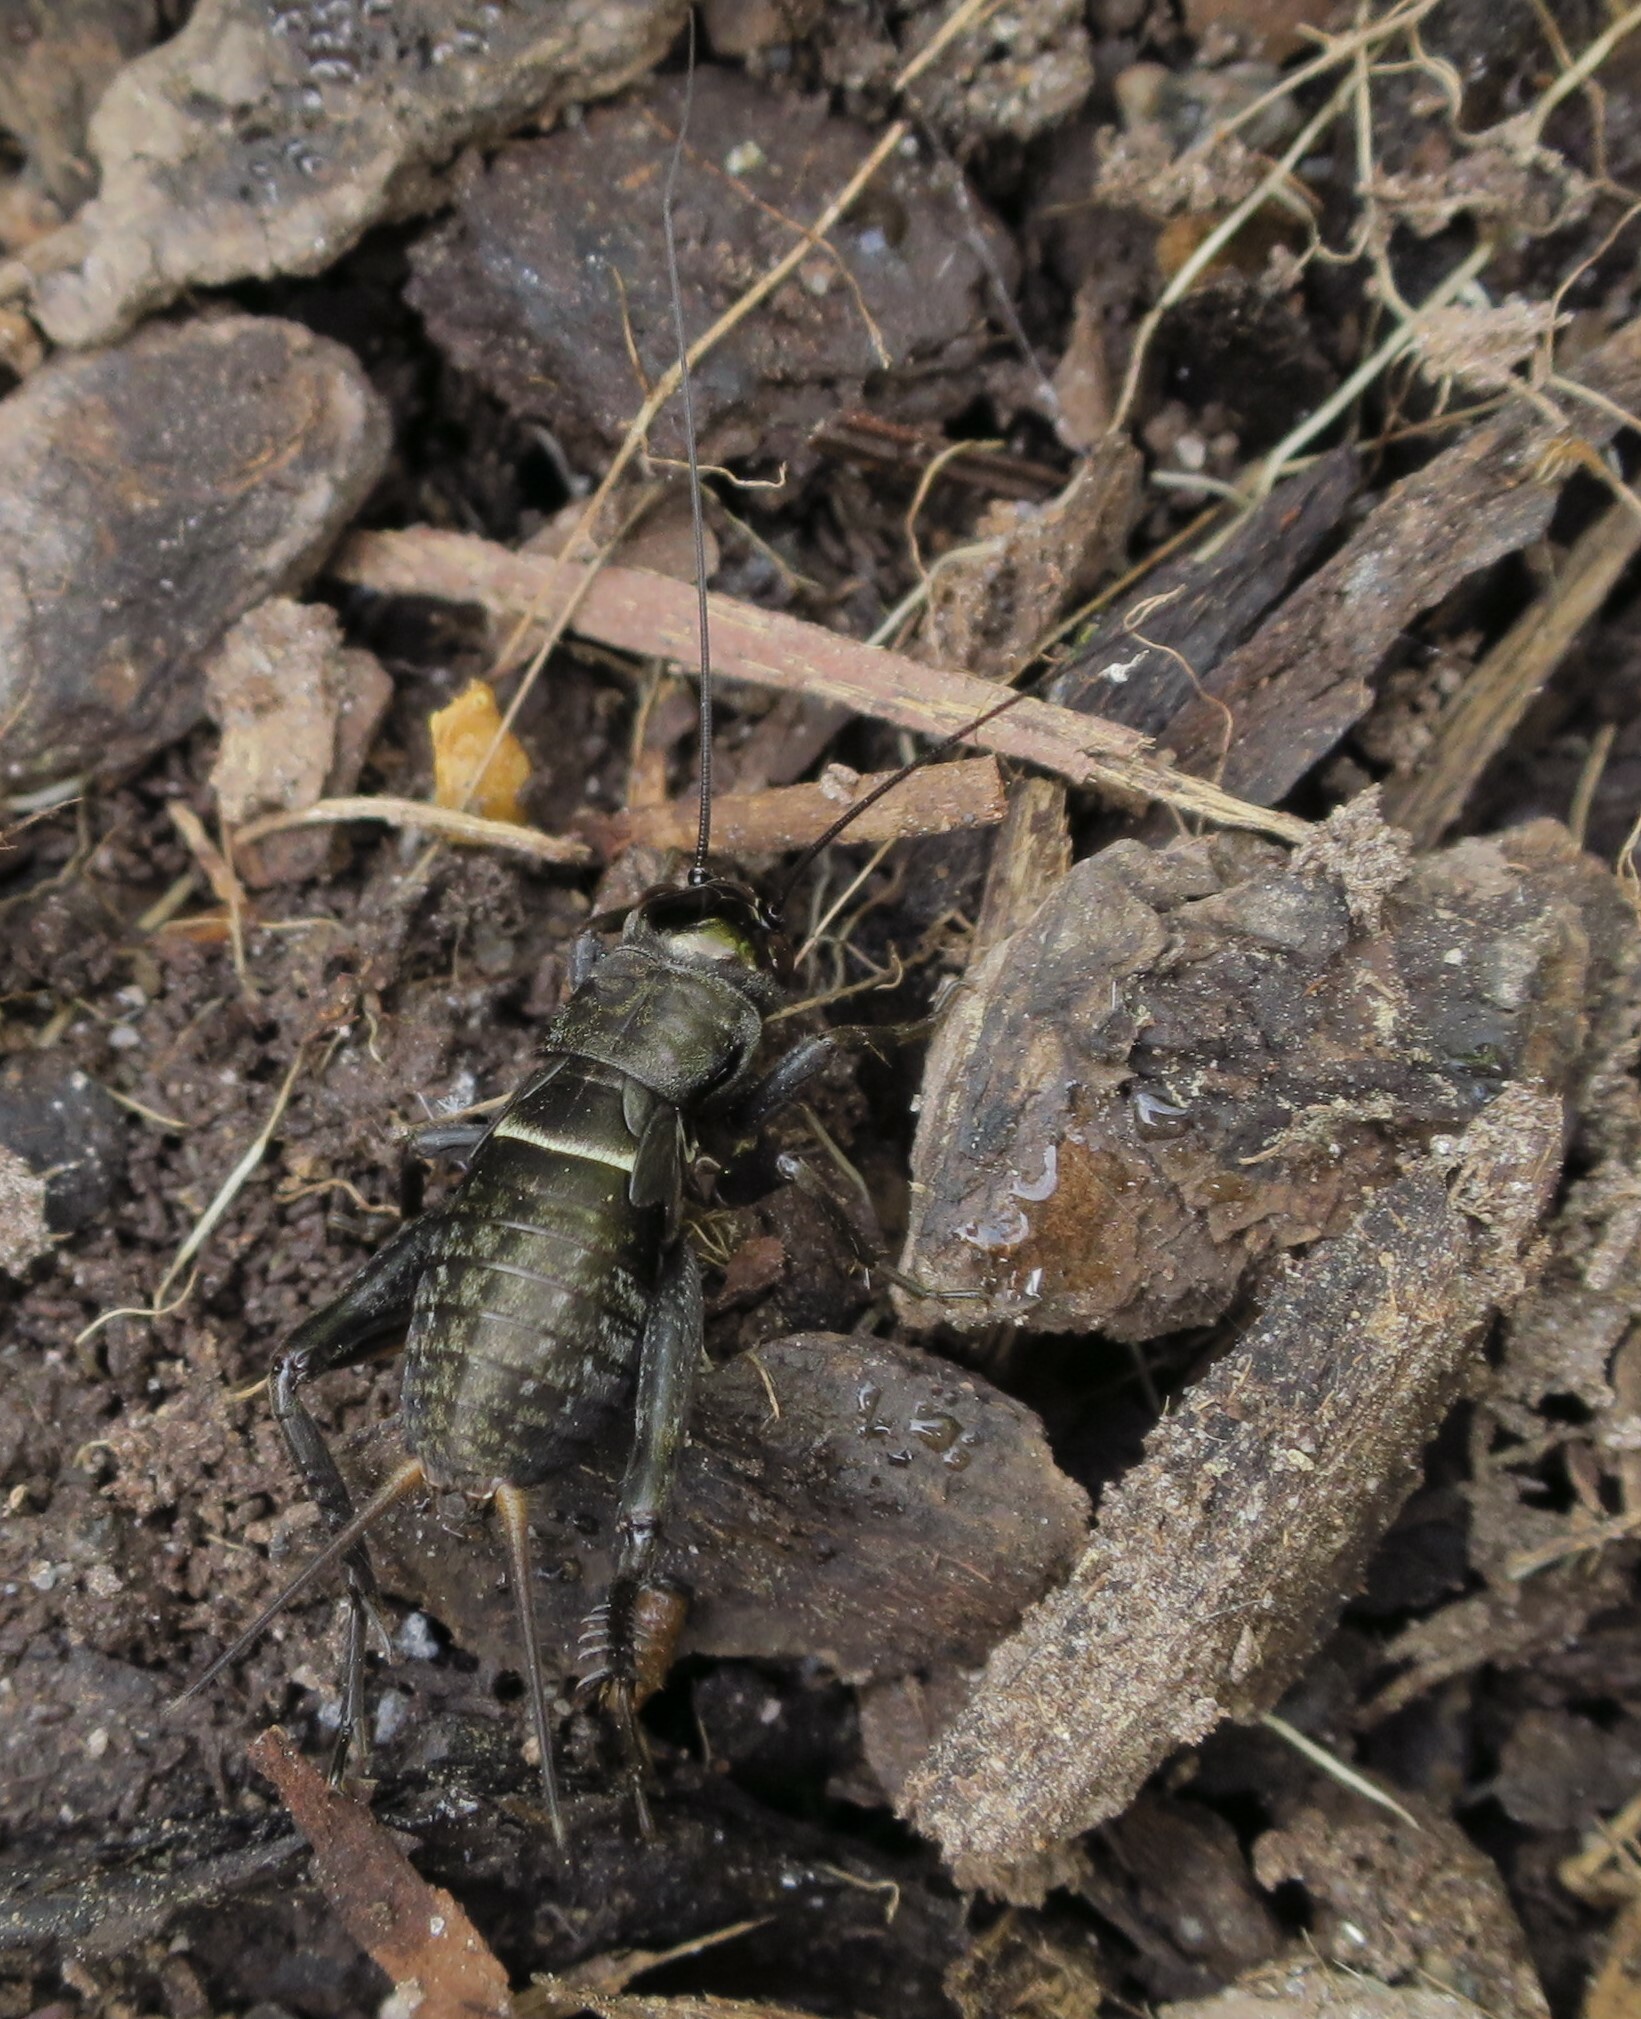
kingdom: Animalia
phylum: Arthropoda
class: Insecta
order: Orthoptera
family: Gryllidae
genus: Teleogryllus
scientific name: Teleogryllus commodus
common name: Black field cricket
